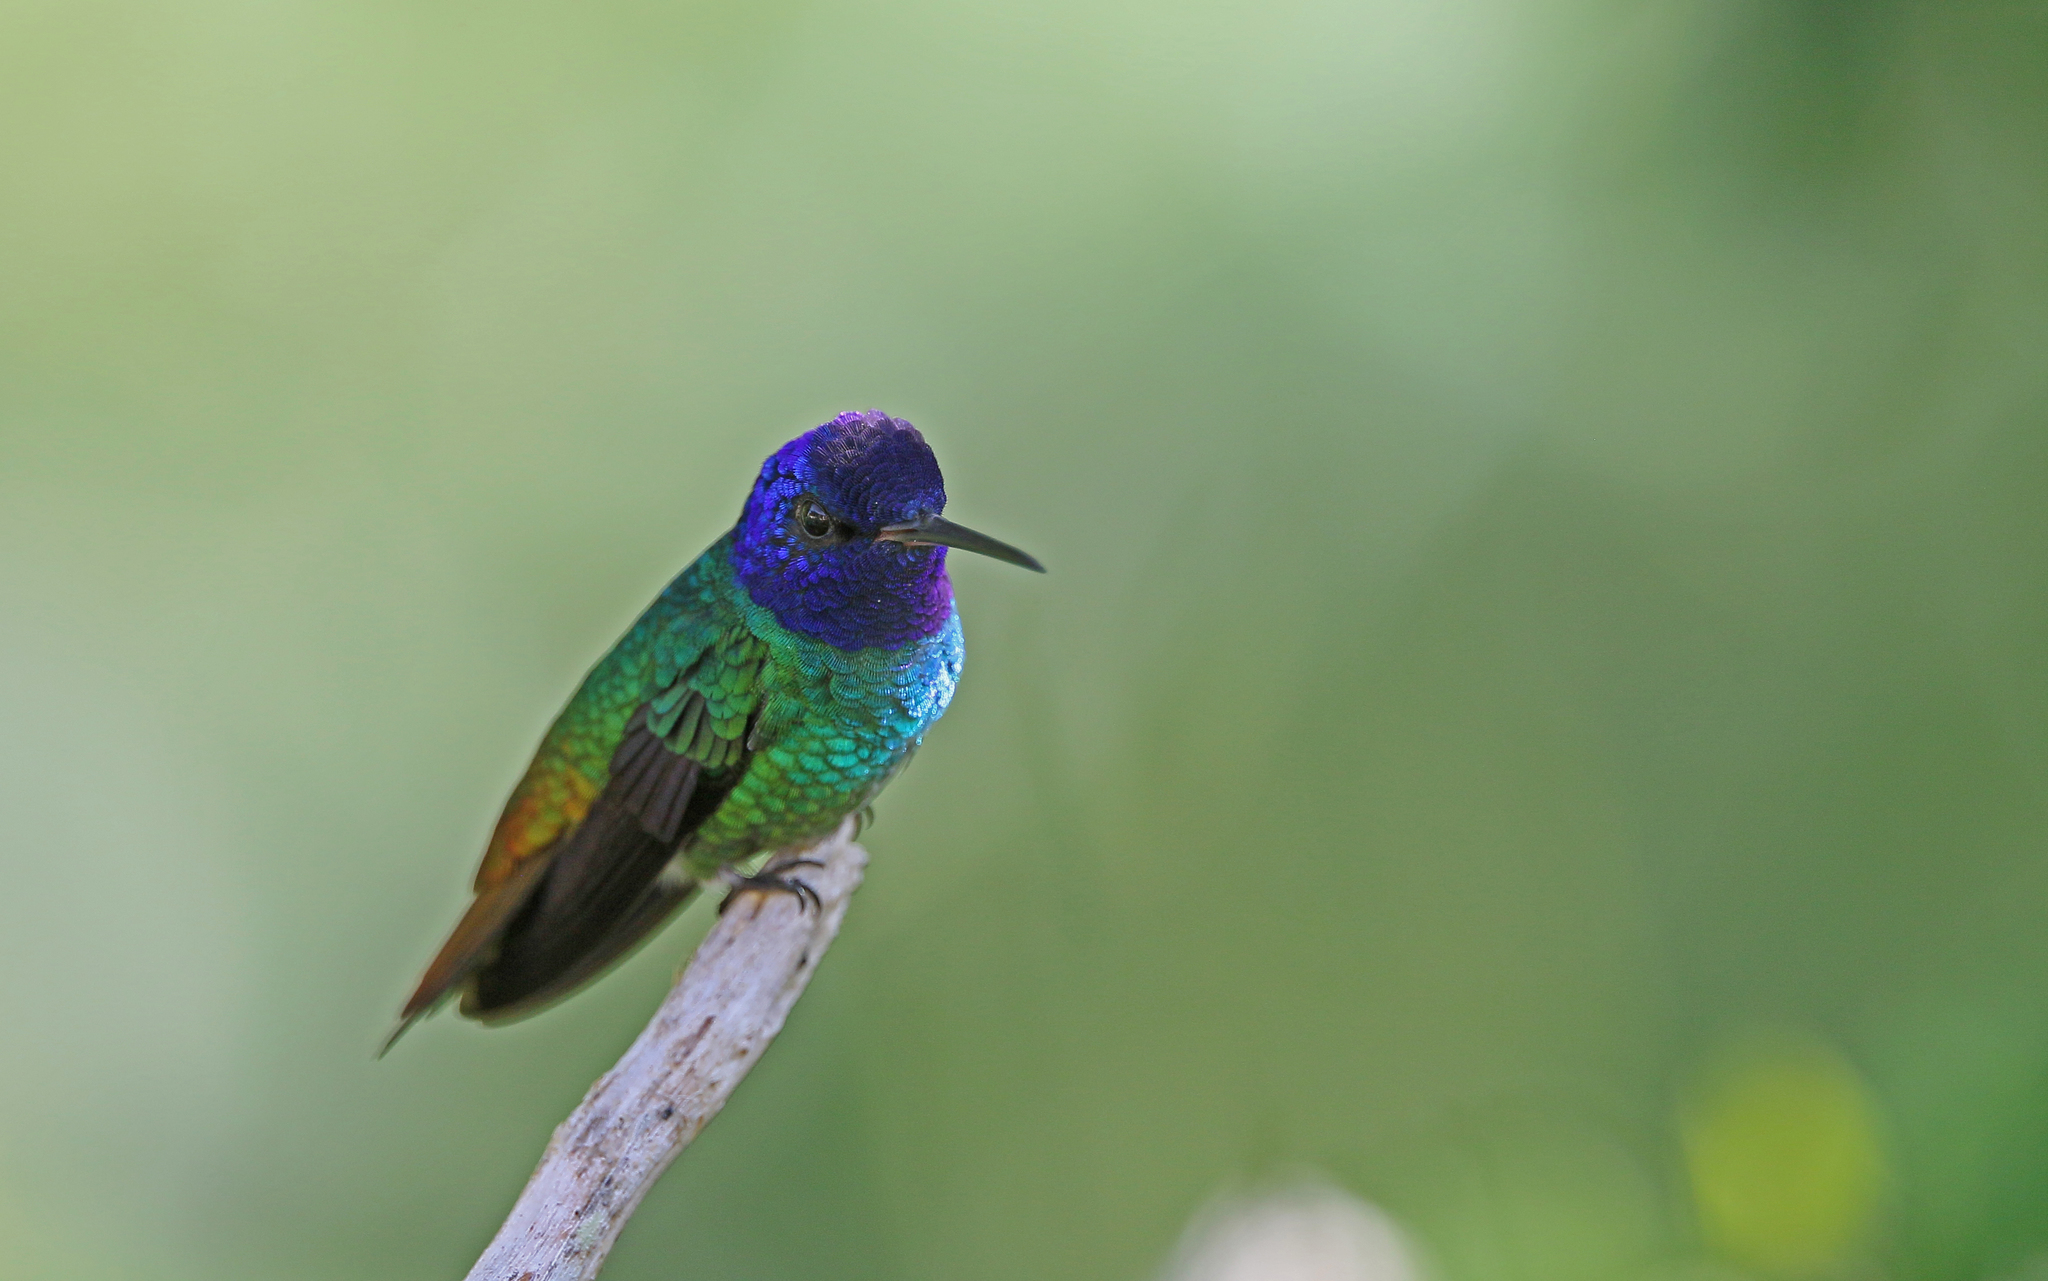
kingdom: Animalia
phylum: Chordata
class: Aves
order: Apodiformes
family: Trochilidae
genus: Chrysuronia
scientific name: Chrysuronia oenone
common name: Golden-tailed sapphire
